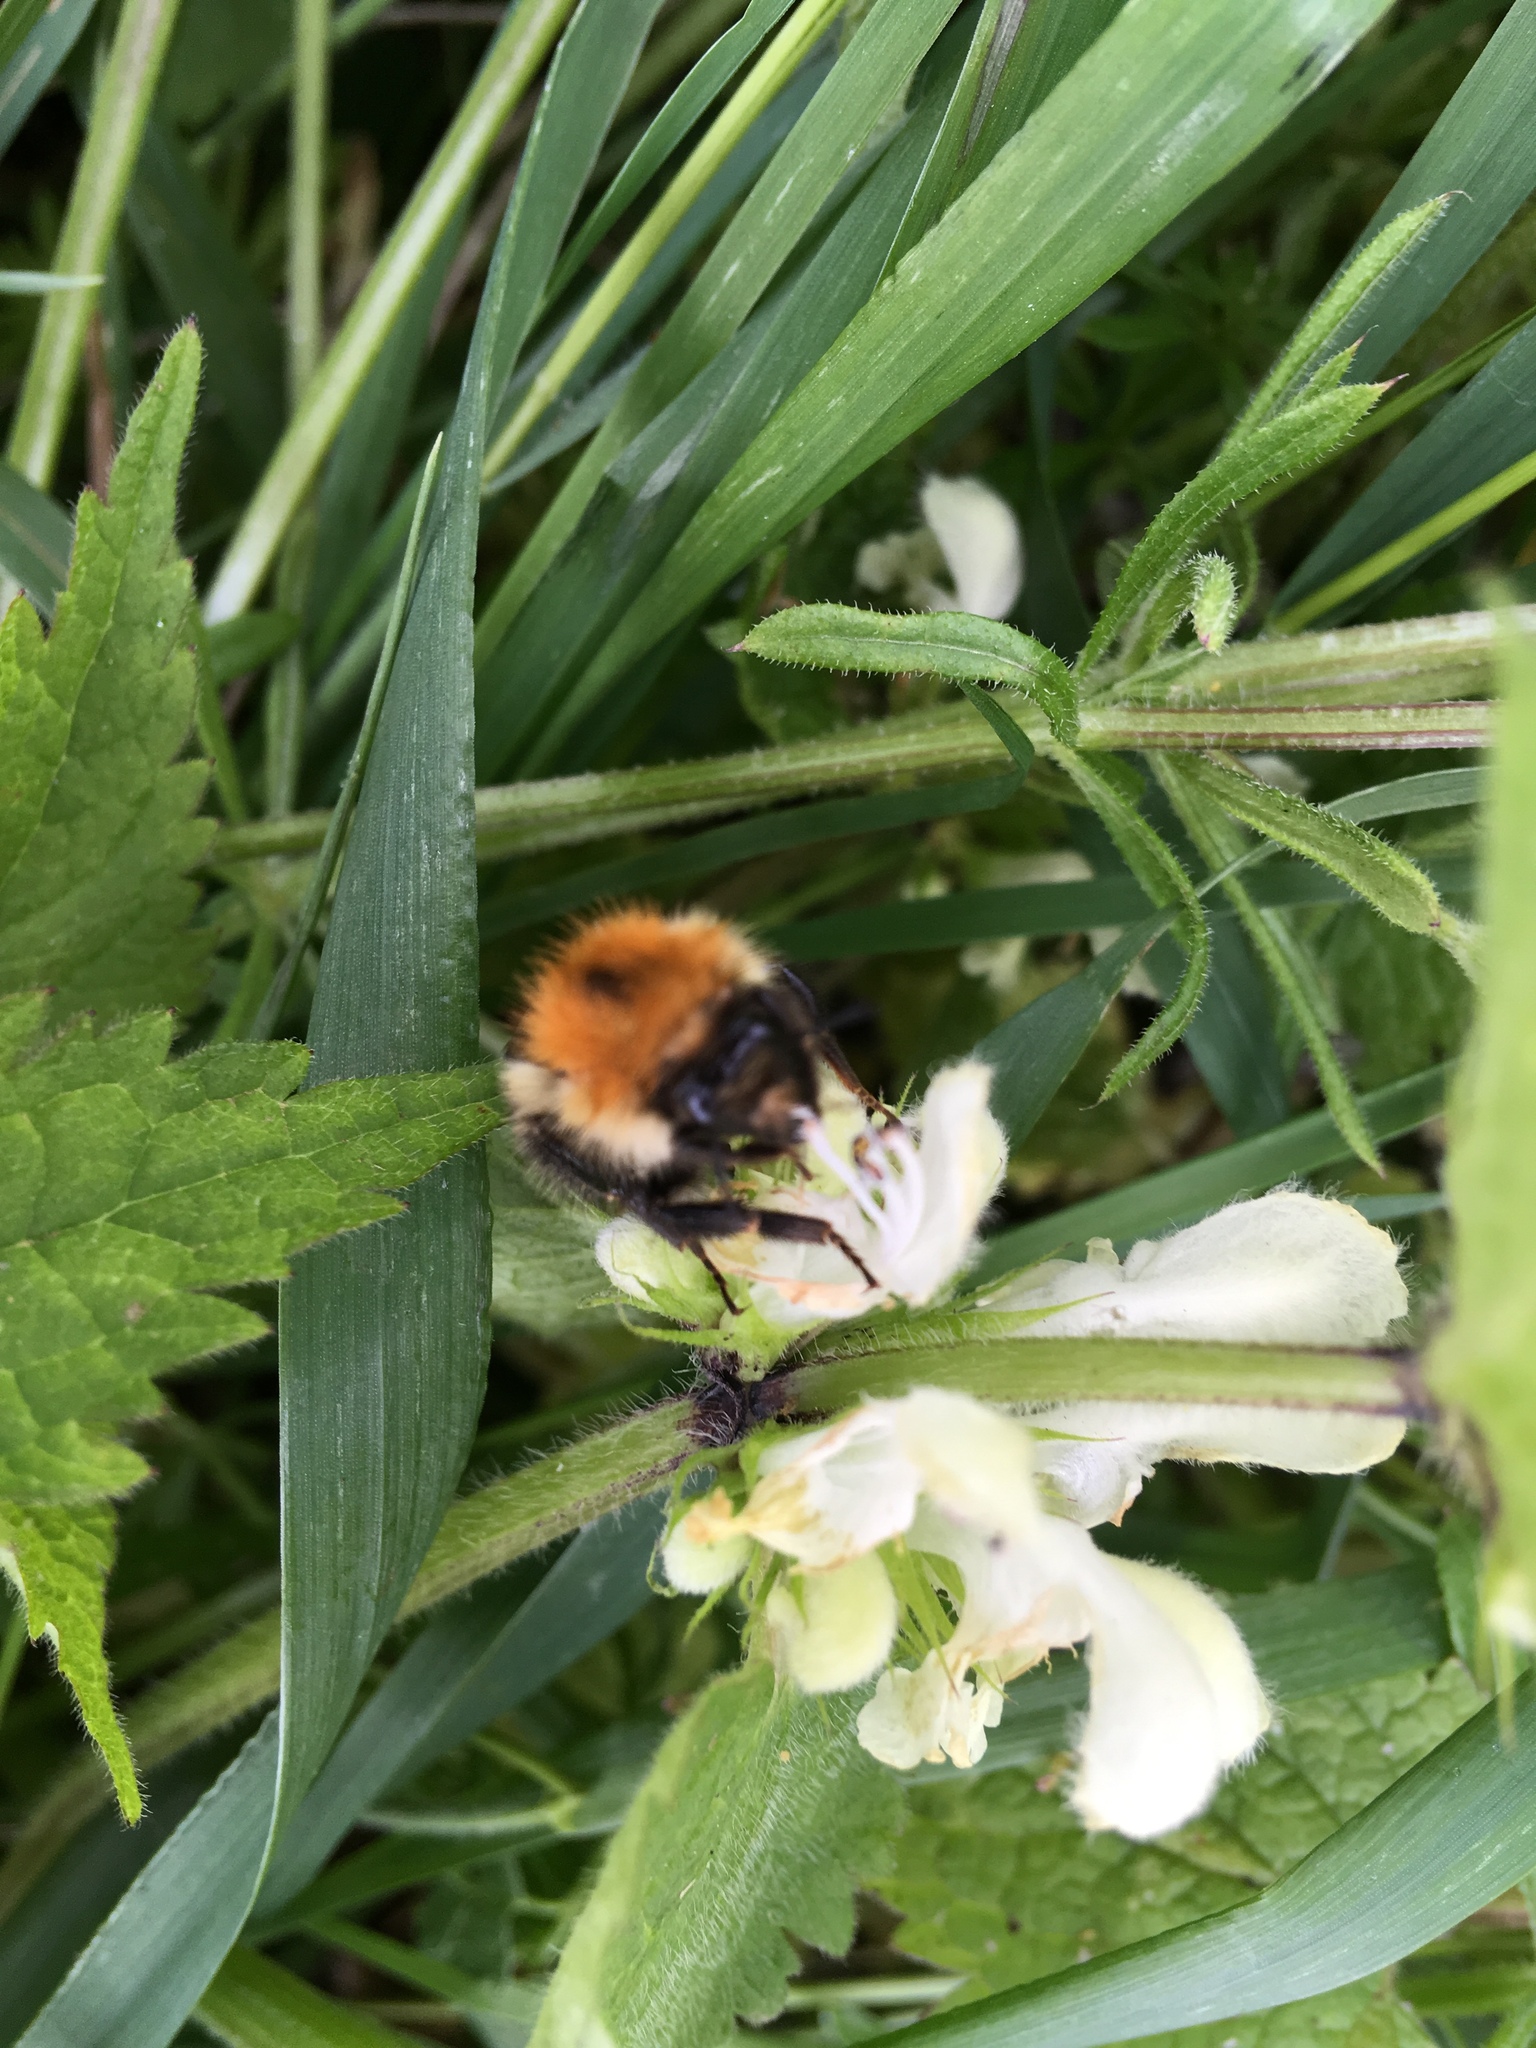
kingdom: Animalia
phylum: Arthropoda
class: Insecta
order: Hymenoptera
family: Apidae
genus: Bombus
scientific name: Bombus pascuorum
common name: Common carder bee
